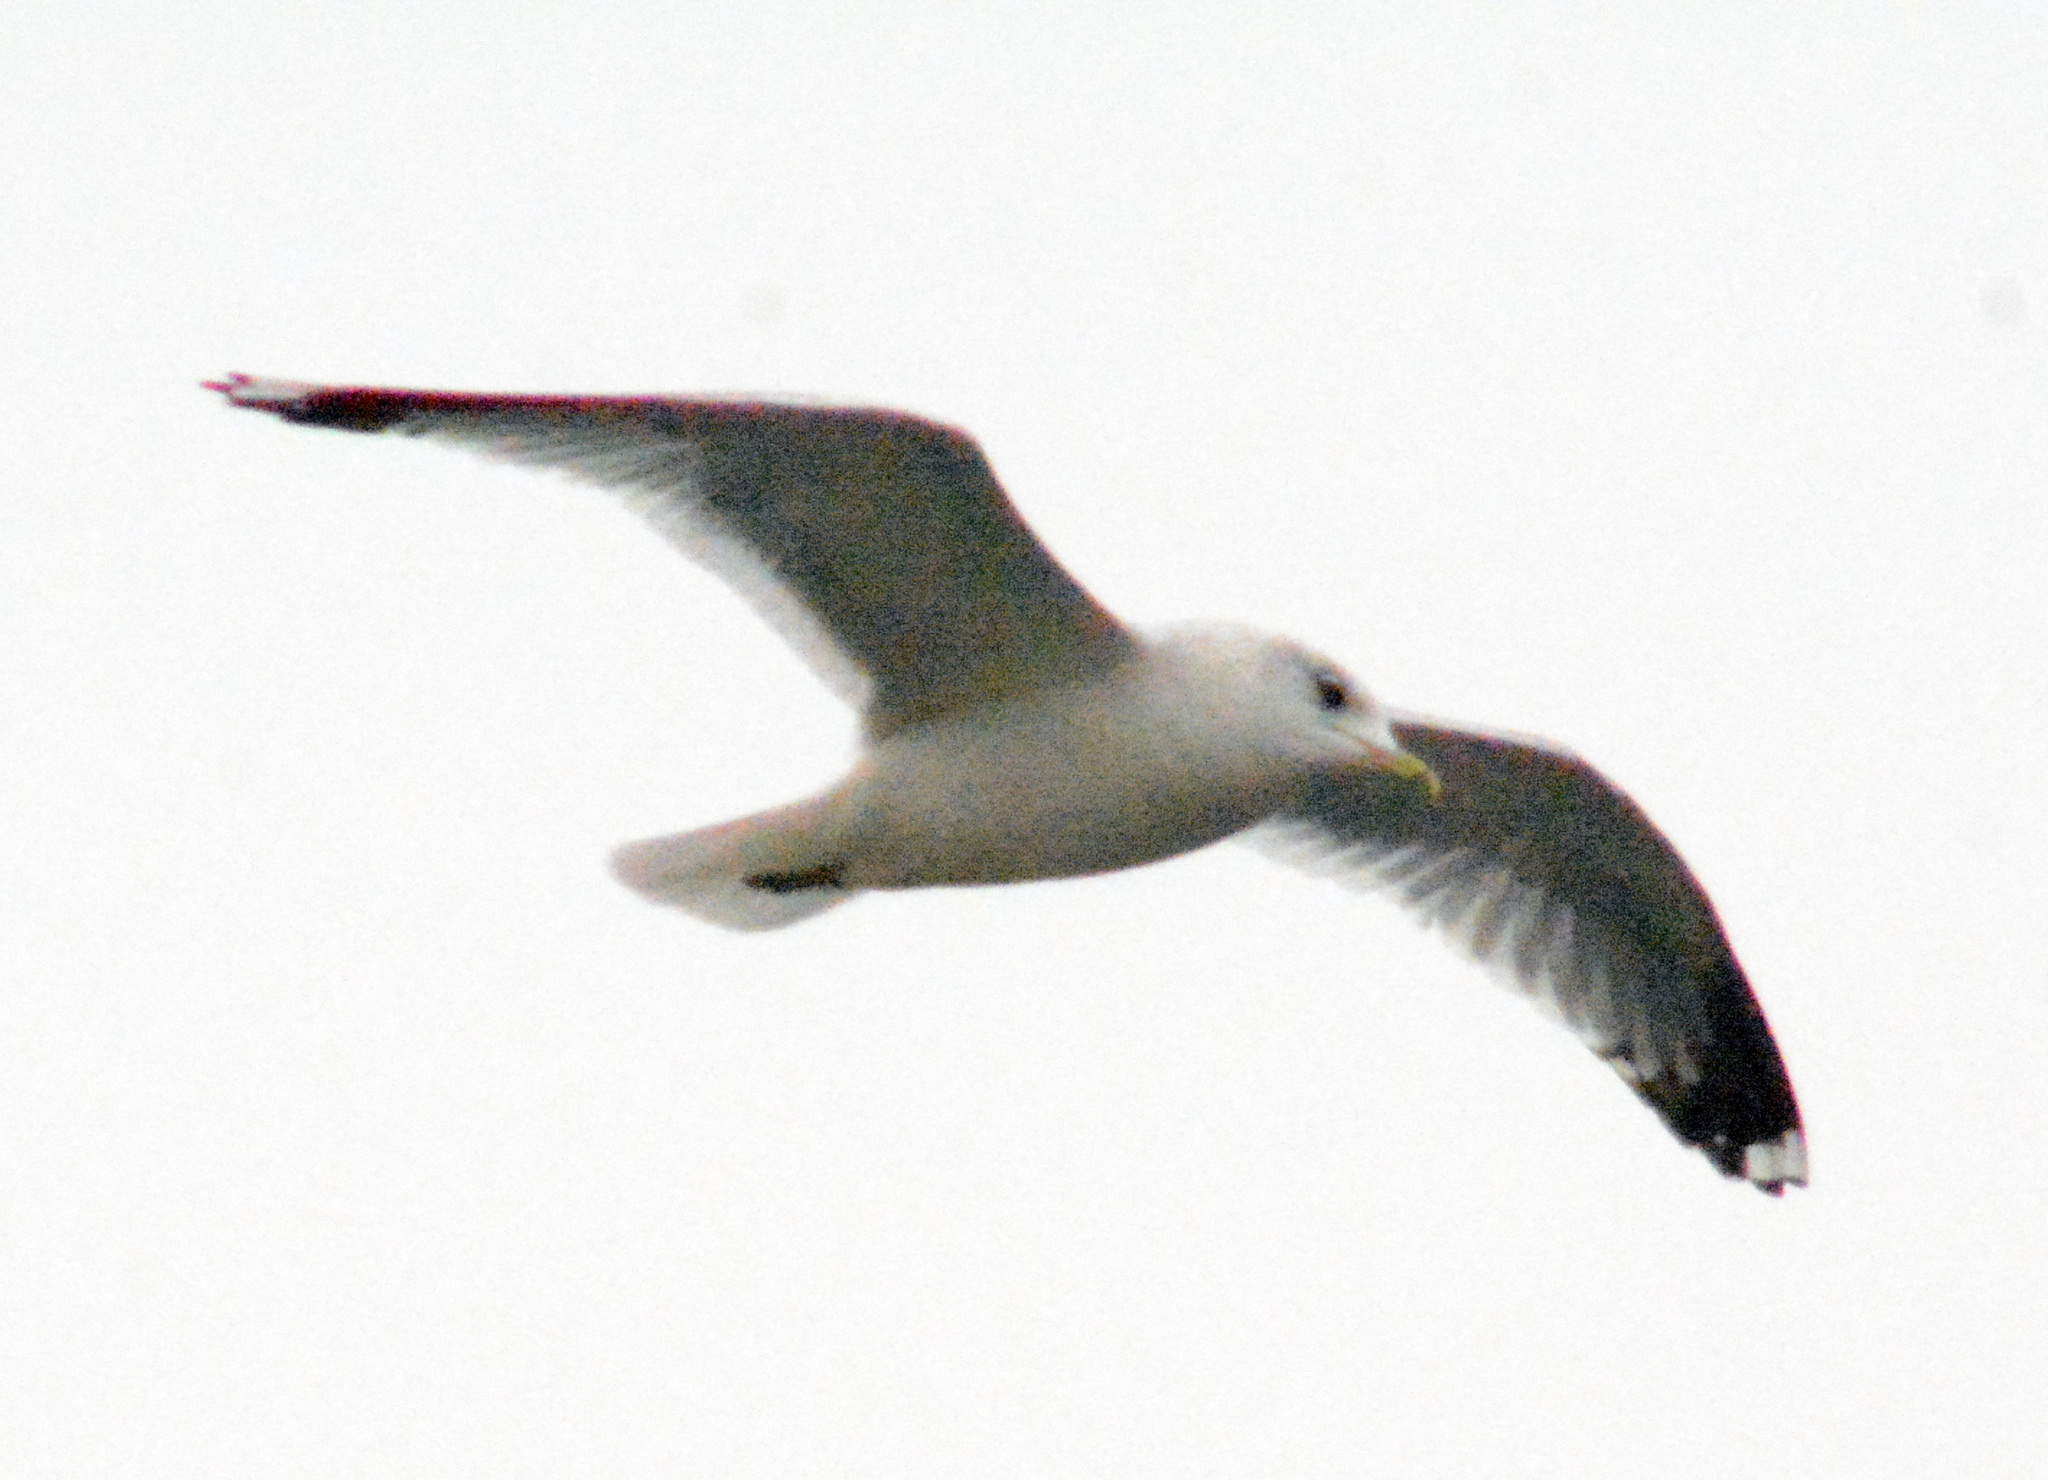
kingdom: Animalia
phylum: Chordata
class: Aves
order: Charadriiformes
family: Laridae
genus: Larus
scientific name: Larus canus
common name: Mew gull
